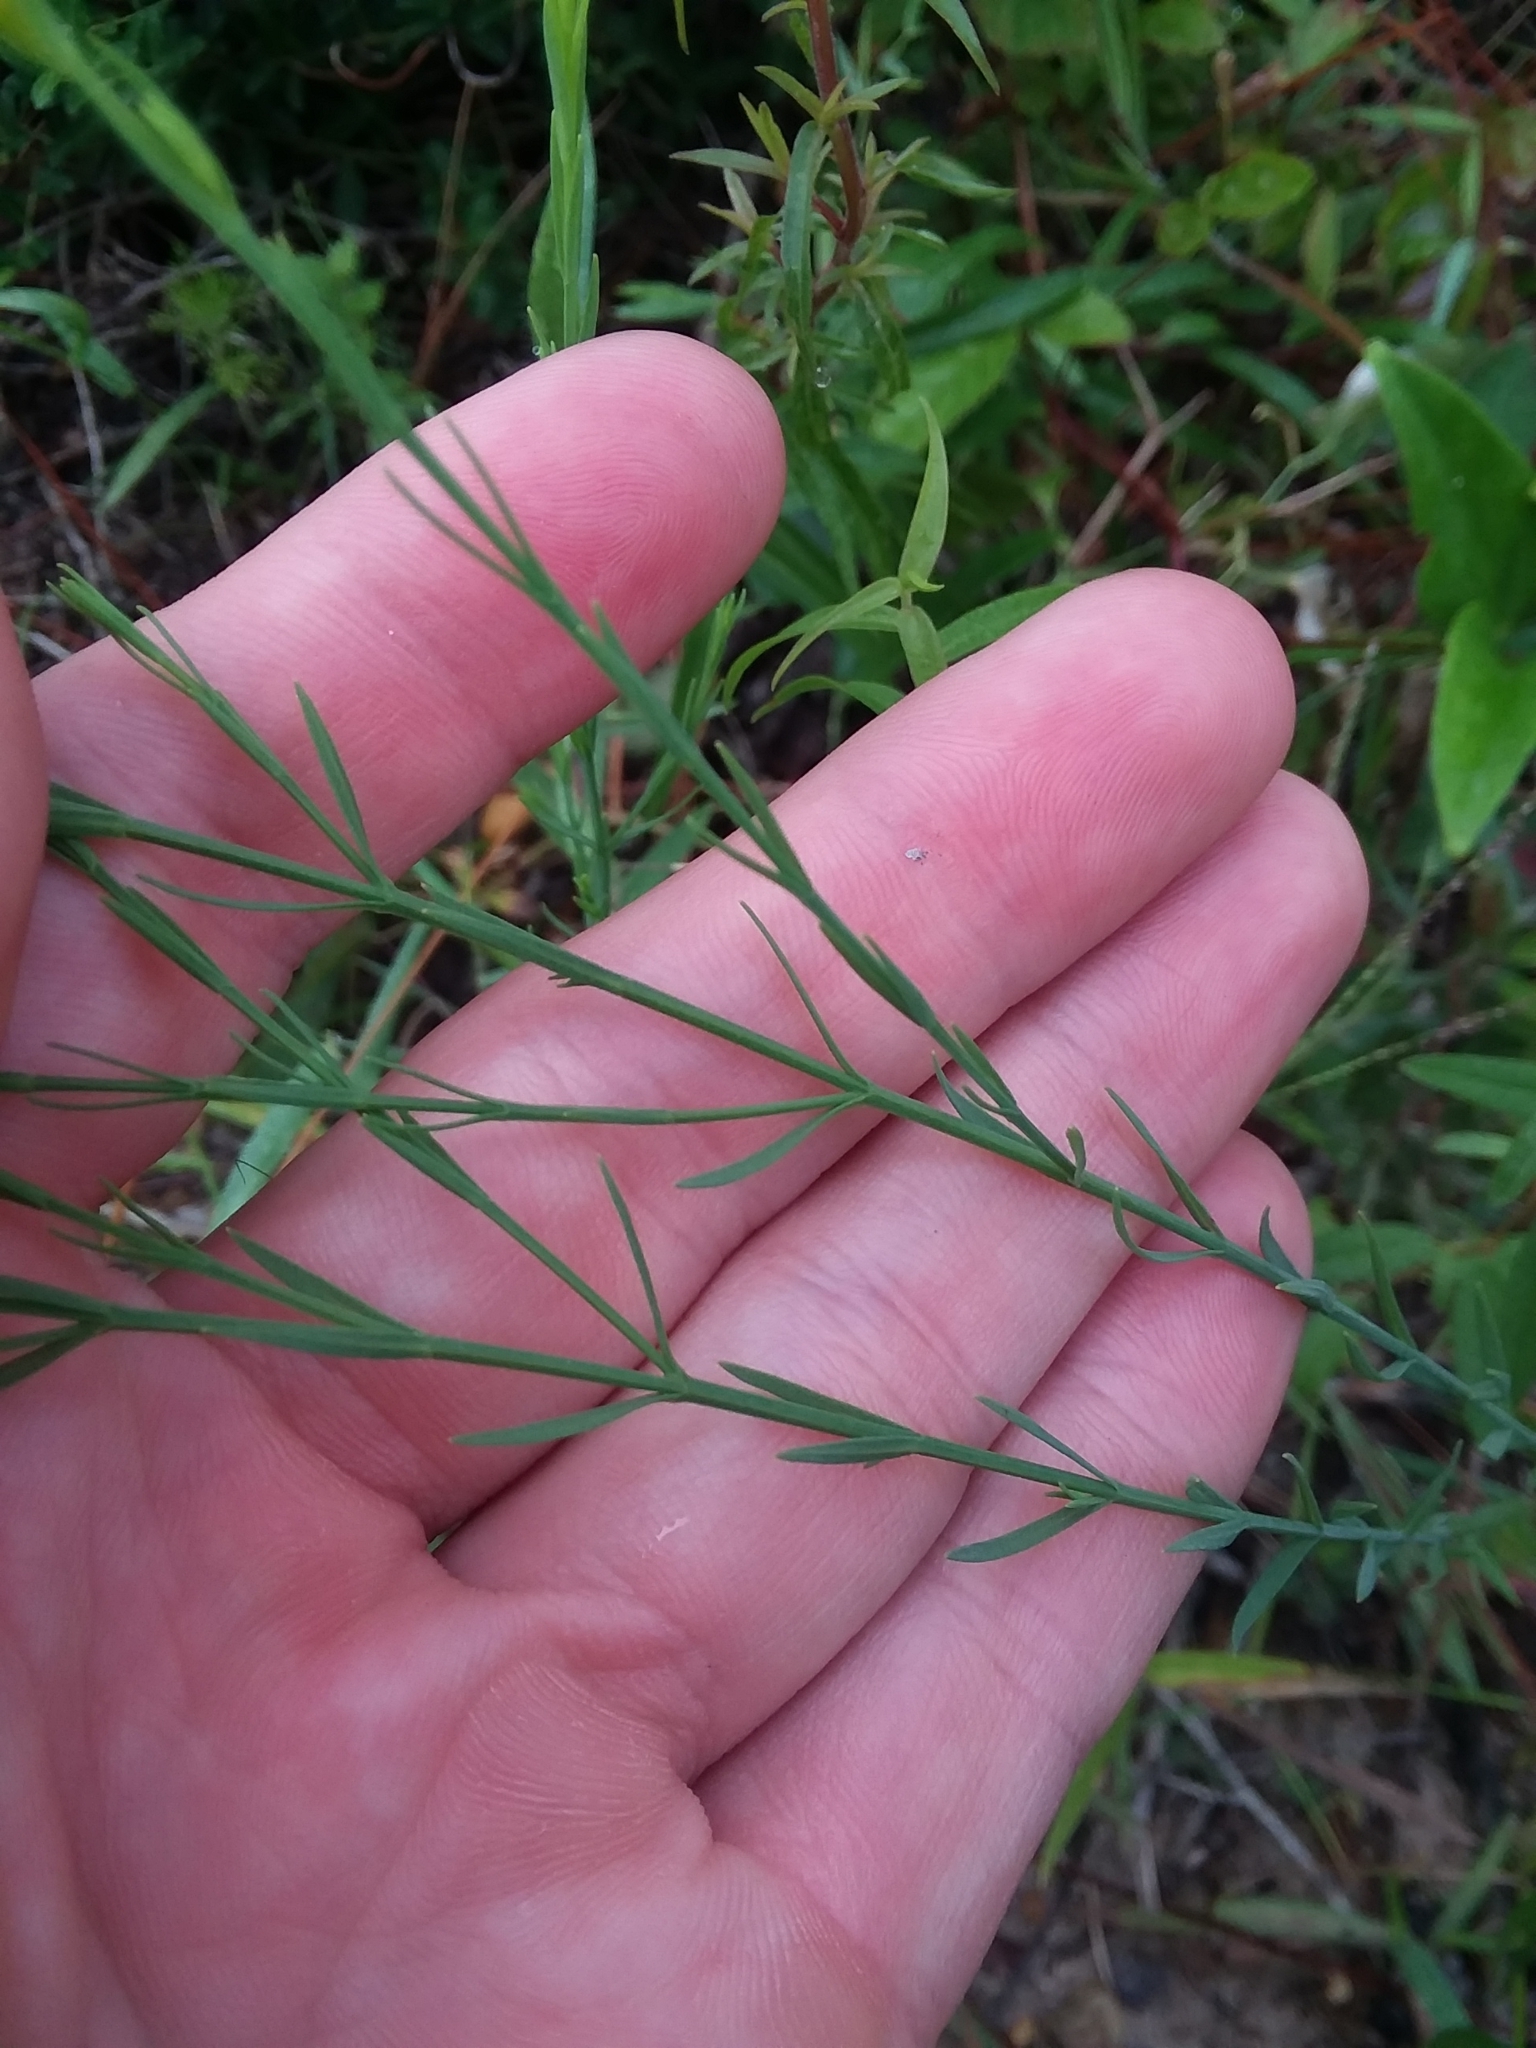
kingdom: Plantae
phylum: Tracheophyta
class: Magnoliopsida
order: Malpighiales
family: Hypericaceae
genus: Hypericum
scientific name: Hypericum drummondii
